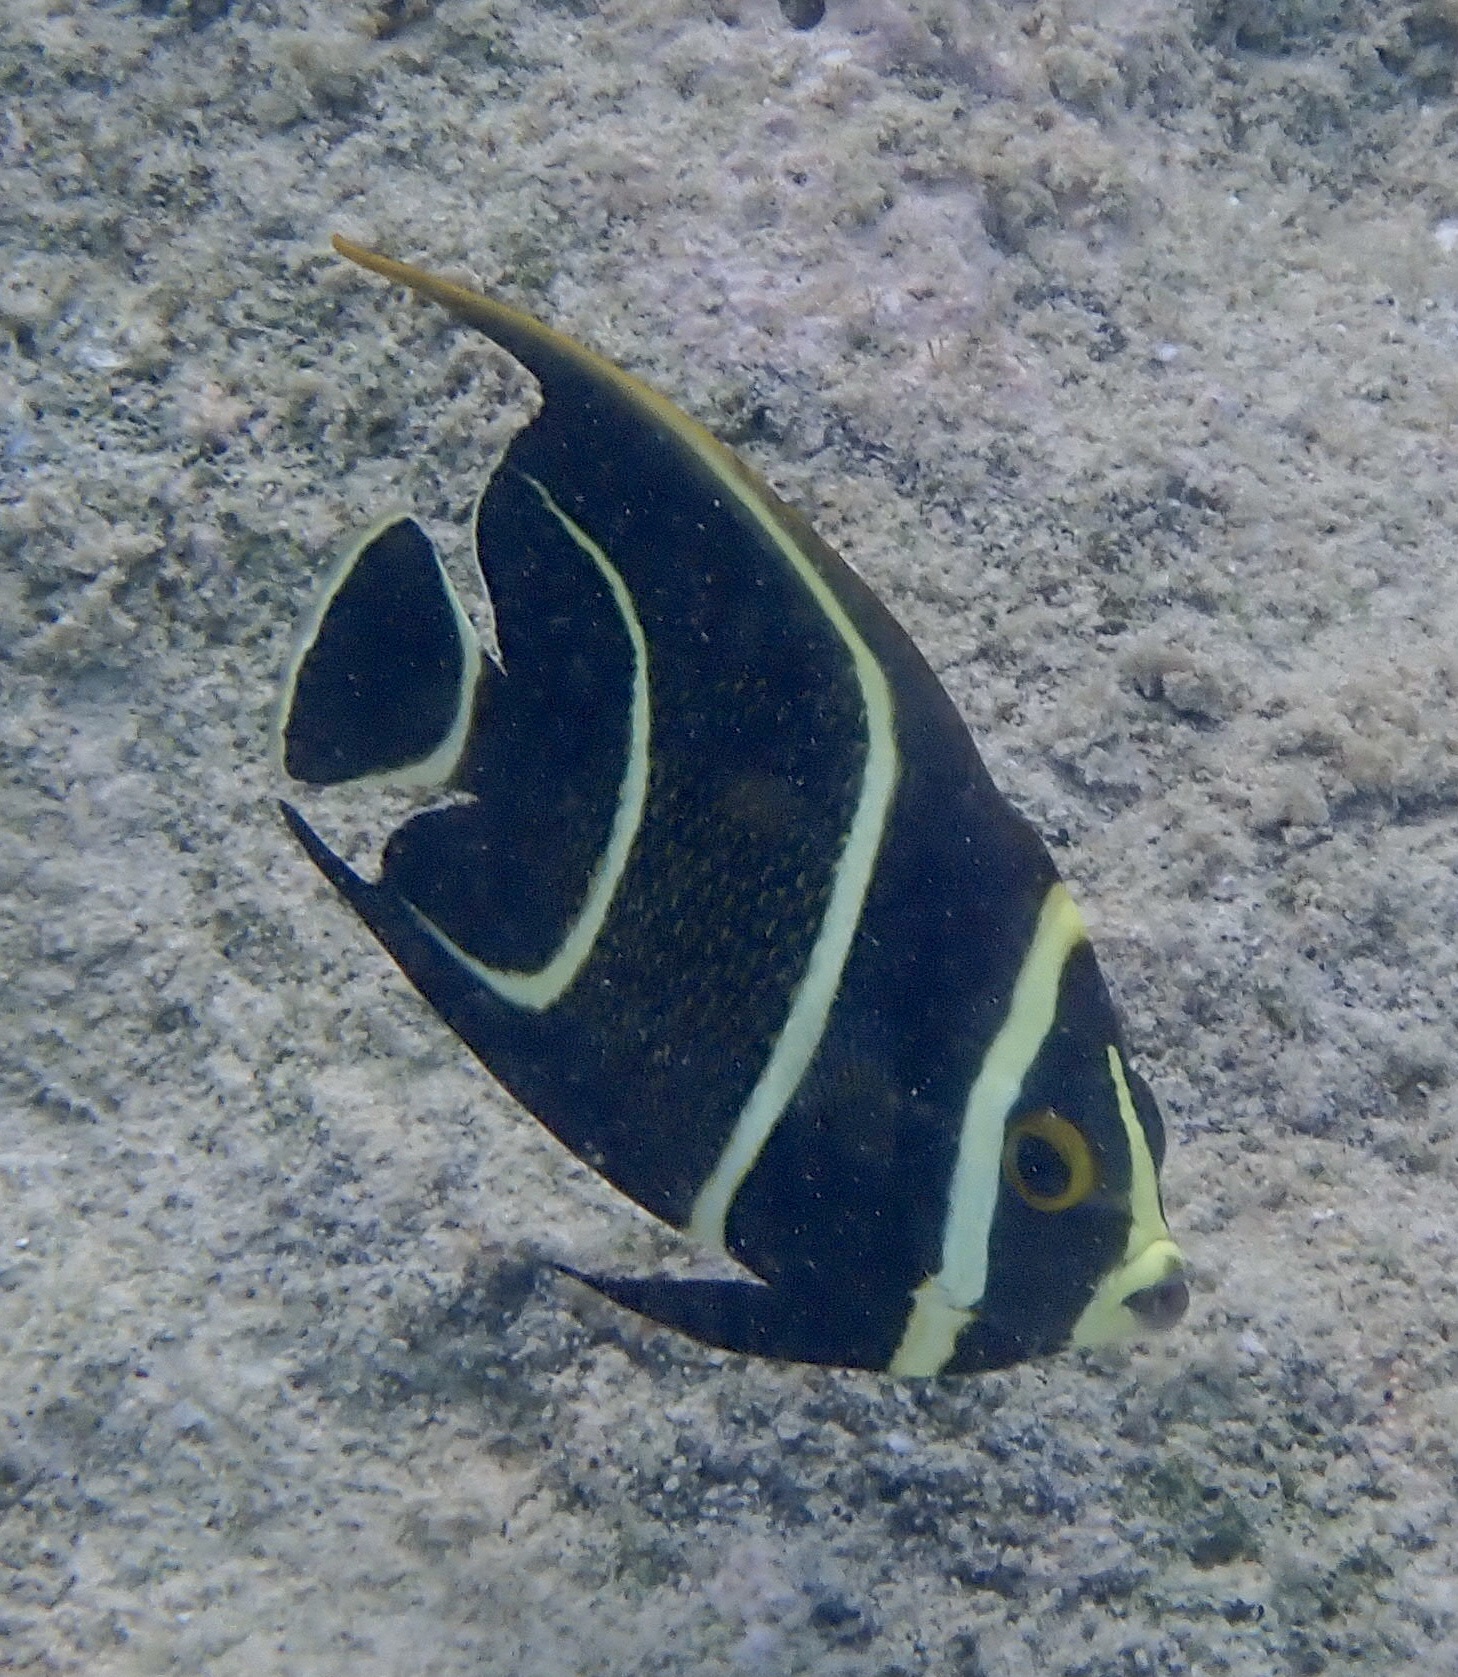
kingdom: Animalia
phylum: Chordata
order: Perciformes
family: Pomacanthidae
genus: Pomacanthus
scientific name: Pomacanthus paru
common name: French angelfish
